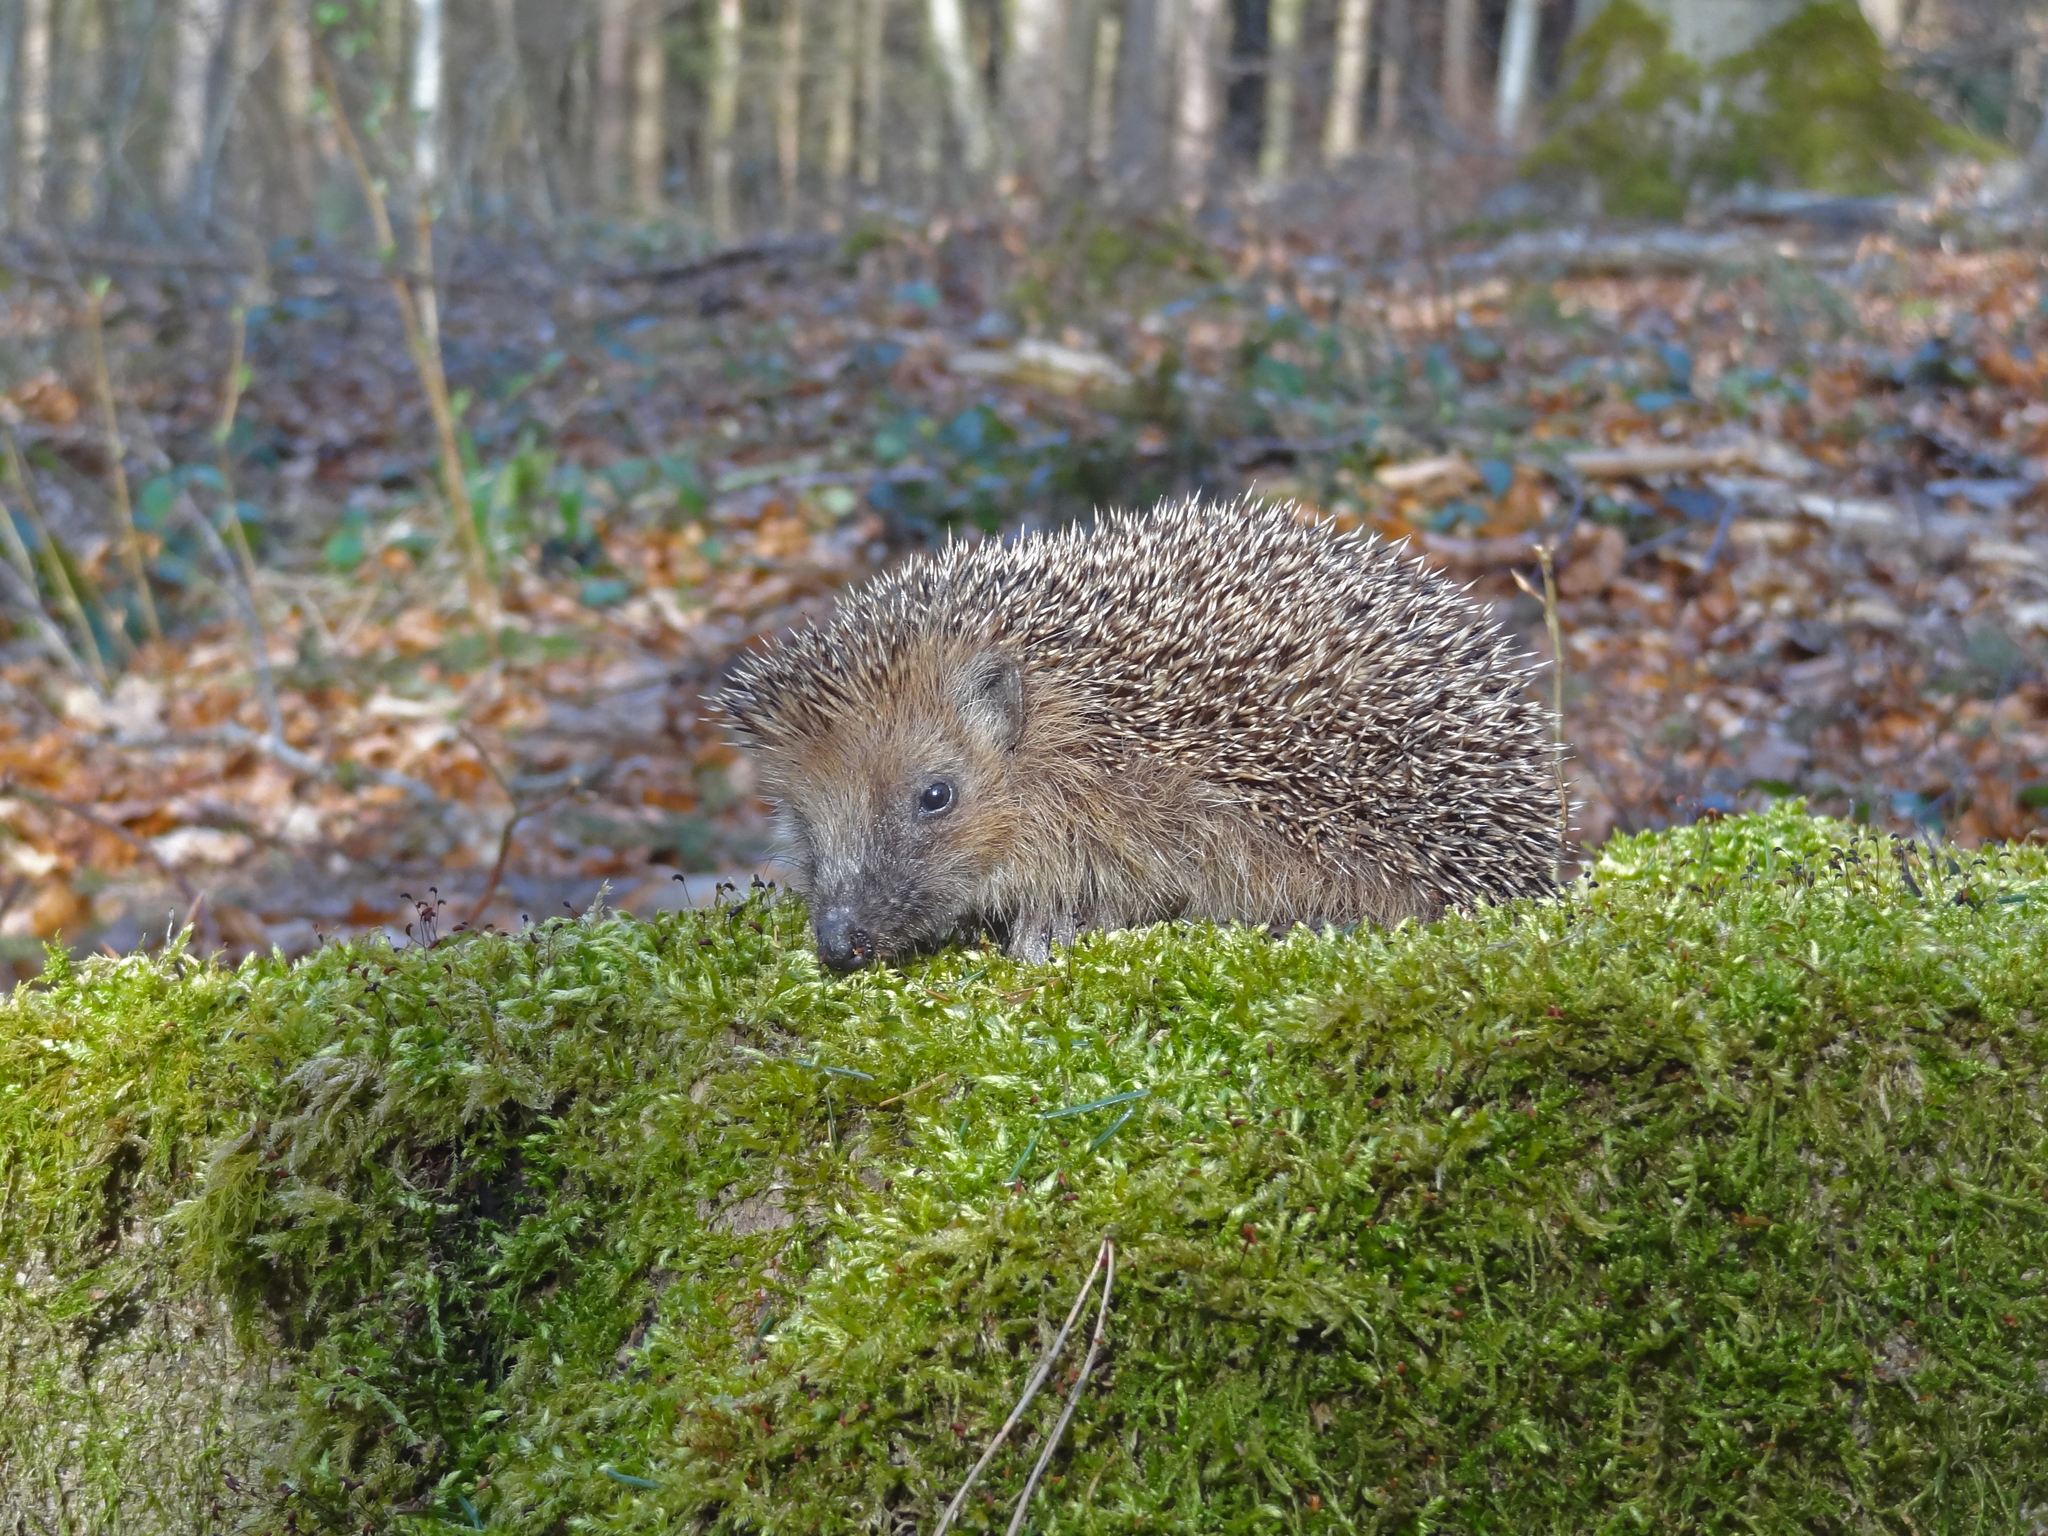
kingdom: Animalia
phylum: Chordata
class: Mammalia
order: Erinaceomorpha
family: Erinaceidae
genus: Erinaceus
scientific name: Erinaceus europaeus
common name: West european hedgehog
